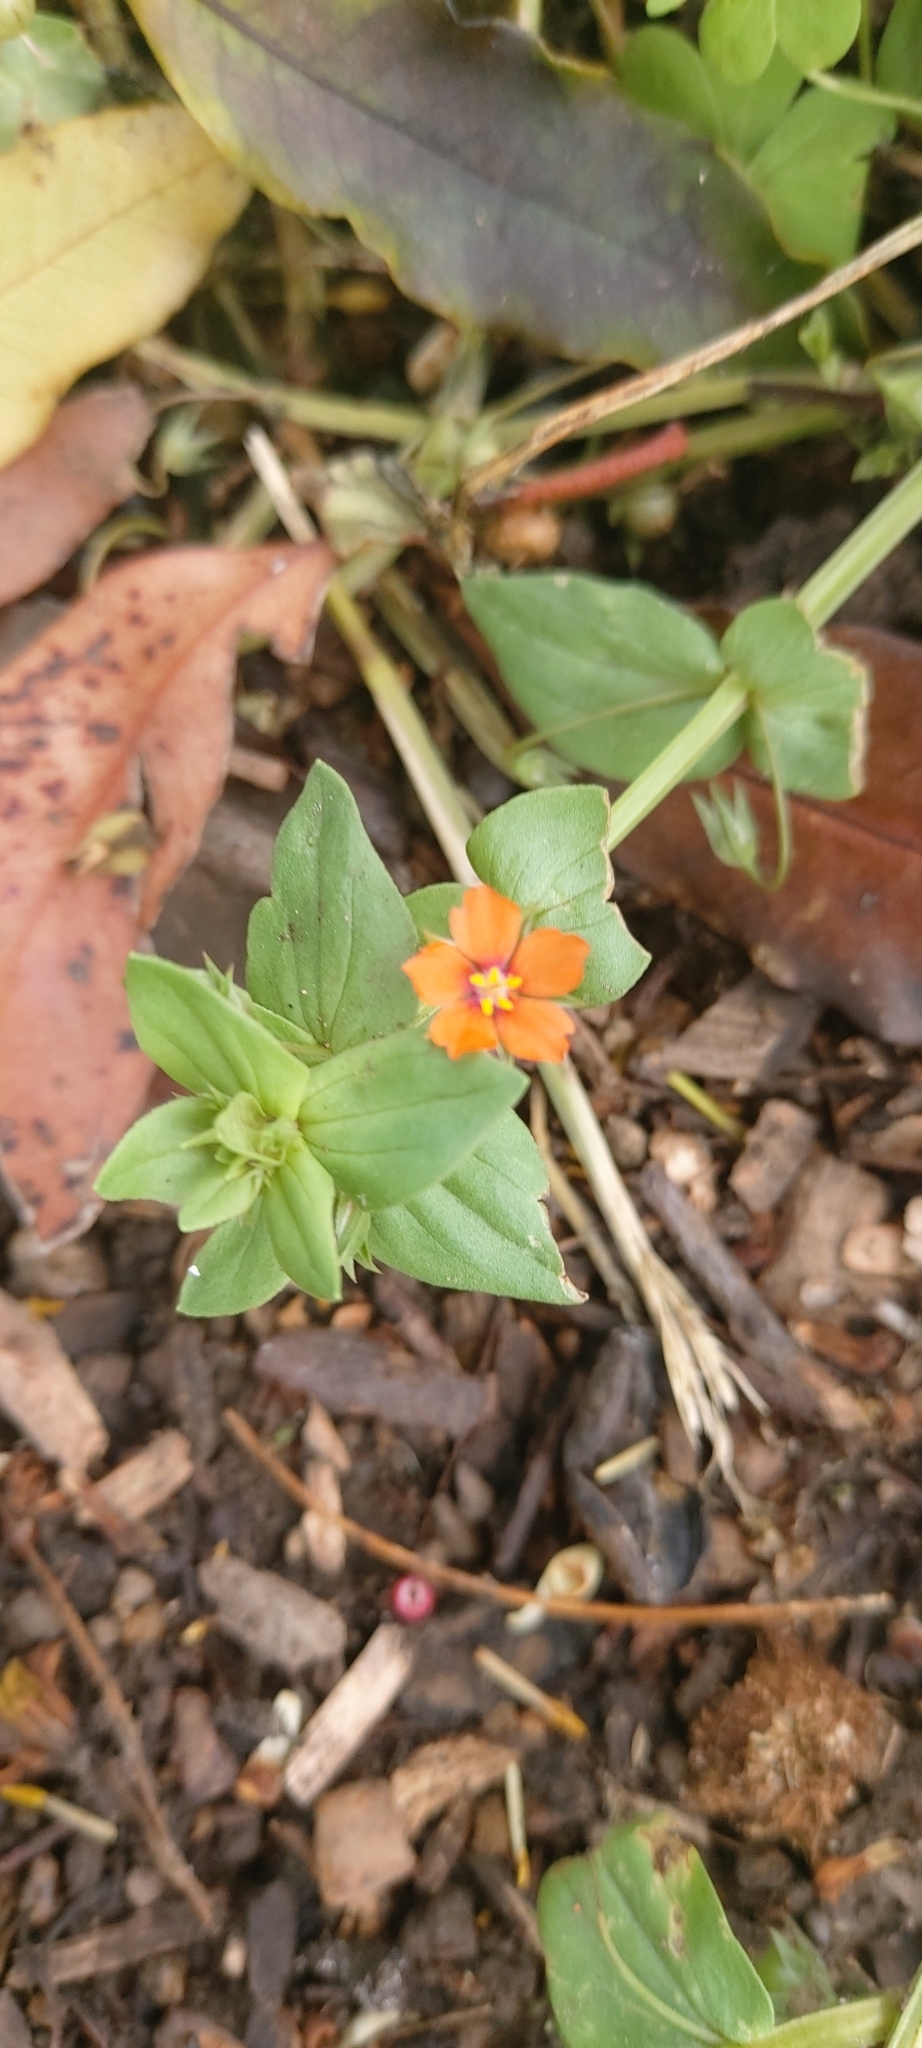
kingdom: Plantae
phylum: Tracheophyta
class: Magnoliopsida
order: Ericales
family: Primulaceae
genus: Lysimachia
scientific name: Lysimachia arvensis
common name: Scarlet pimpernel
